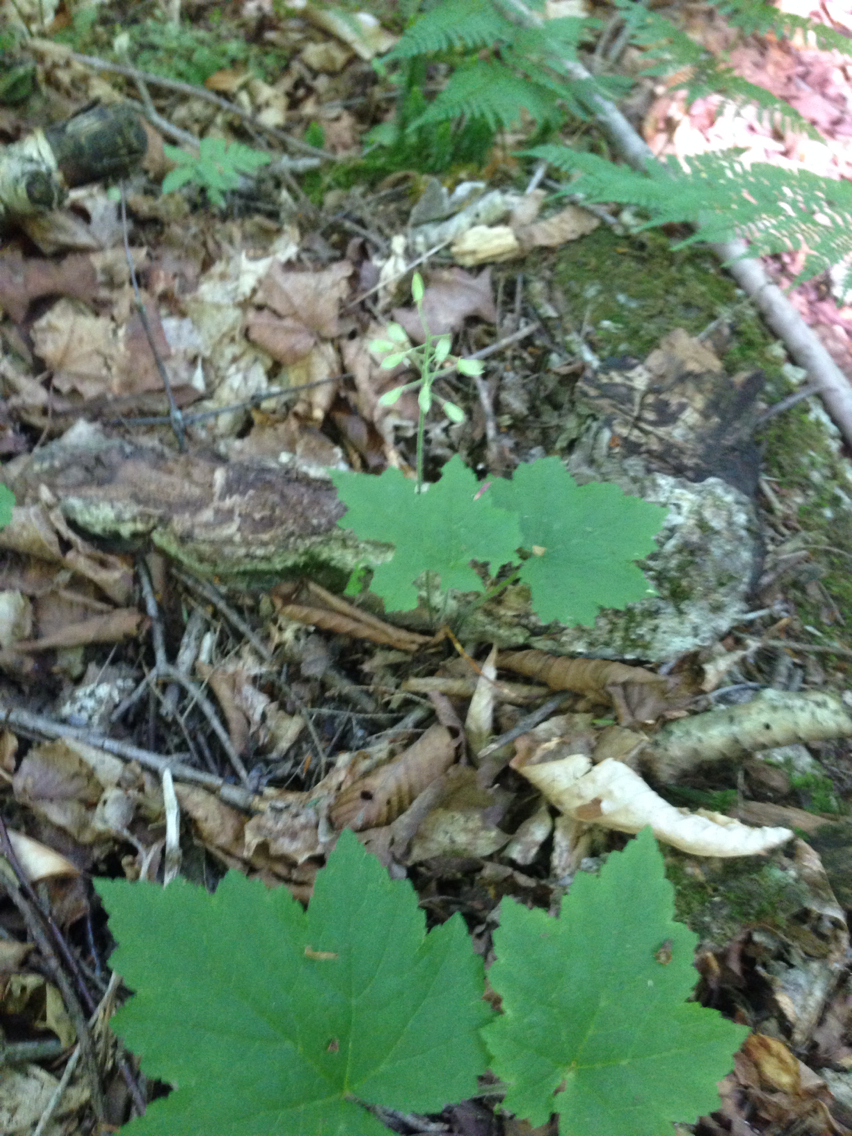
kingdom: Plantae
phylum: Tracheophyta
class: Magnoliopsida
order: Saxifragales
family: Saxifragaceae
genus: Tiarella
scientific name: Tiarella stolonifera
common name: Stoloniferous foamflower
